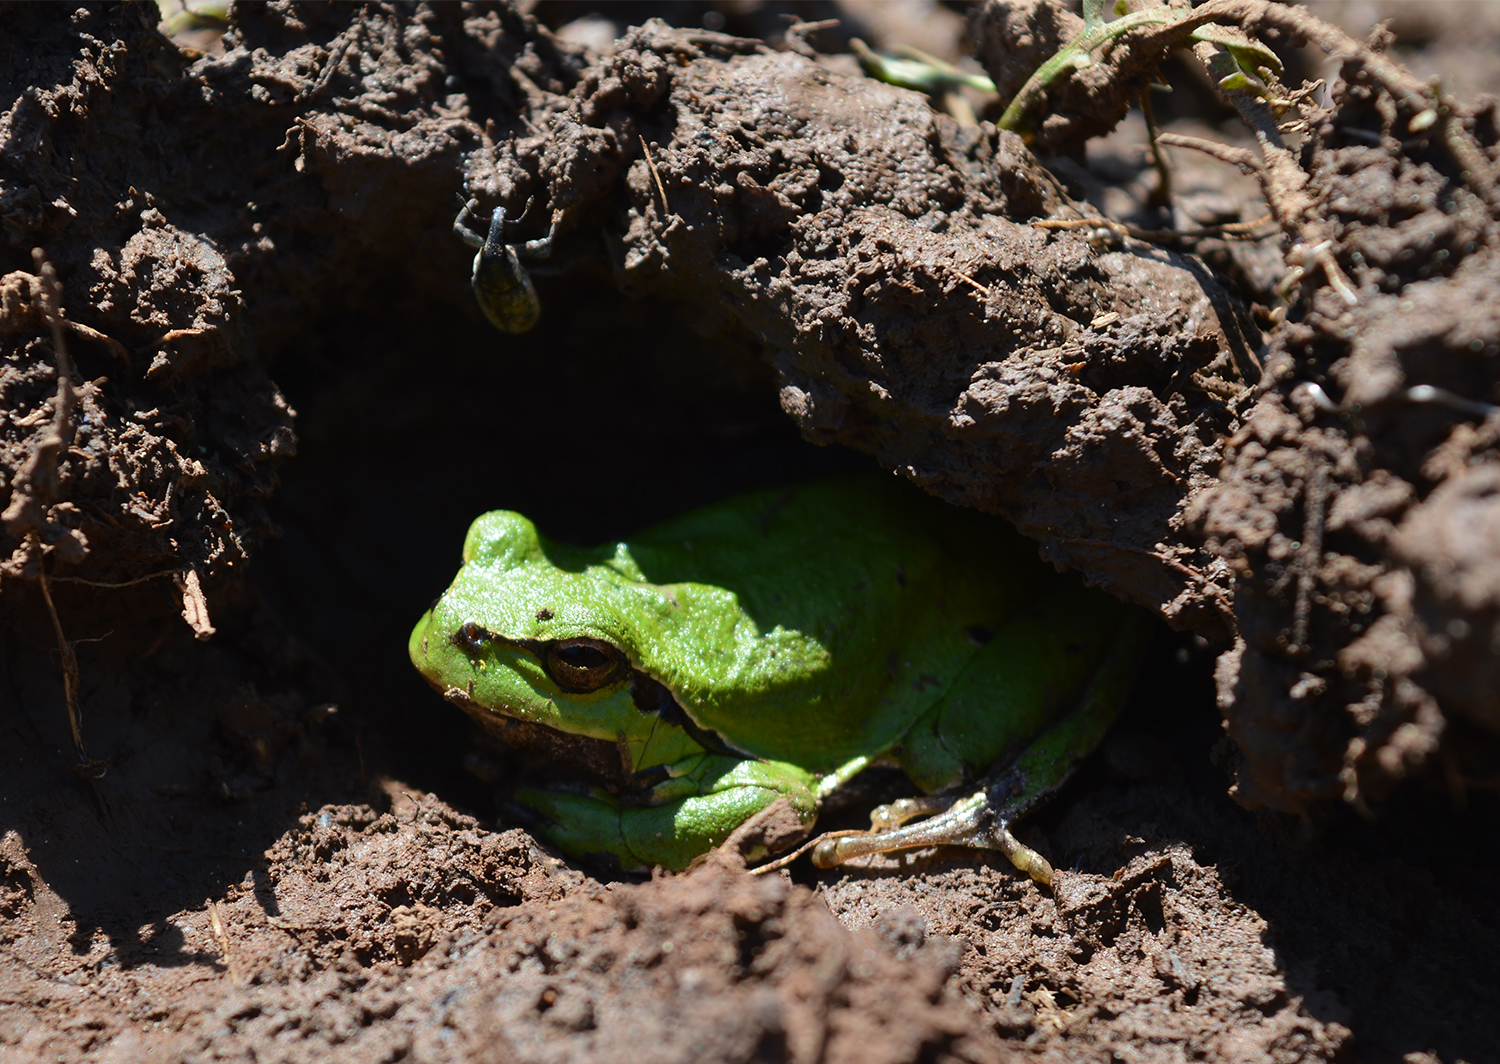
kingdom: Animalia
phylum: Chordata
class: Amphibia
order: Anura
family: Hylidae
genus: Hyla
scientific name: Hyla arborea
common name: Common tree frog
